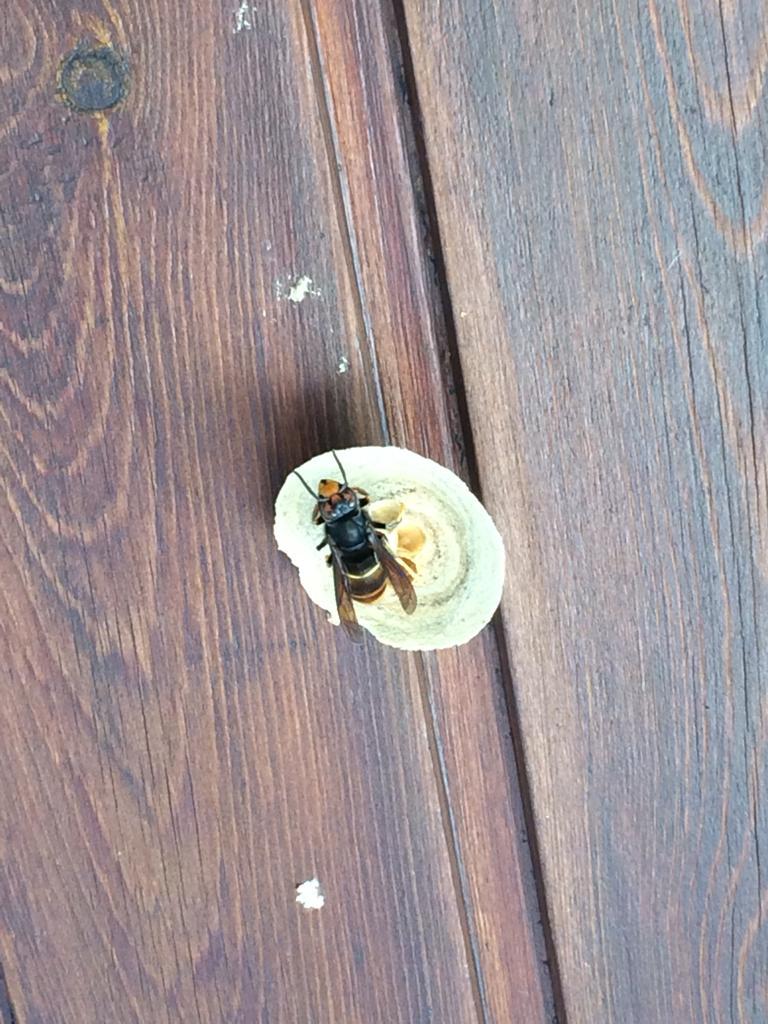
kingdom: Animalia
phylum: Arthropoda
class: Insecta
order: Hymenoptera
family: Vespidae
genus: Vespa
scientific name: Vespa velutina
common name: Asian hornet
